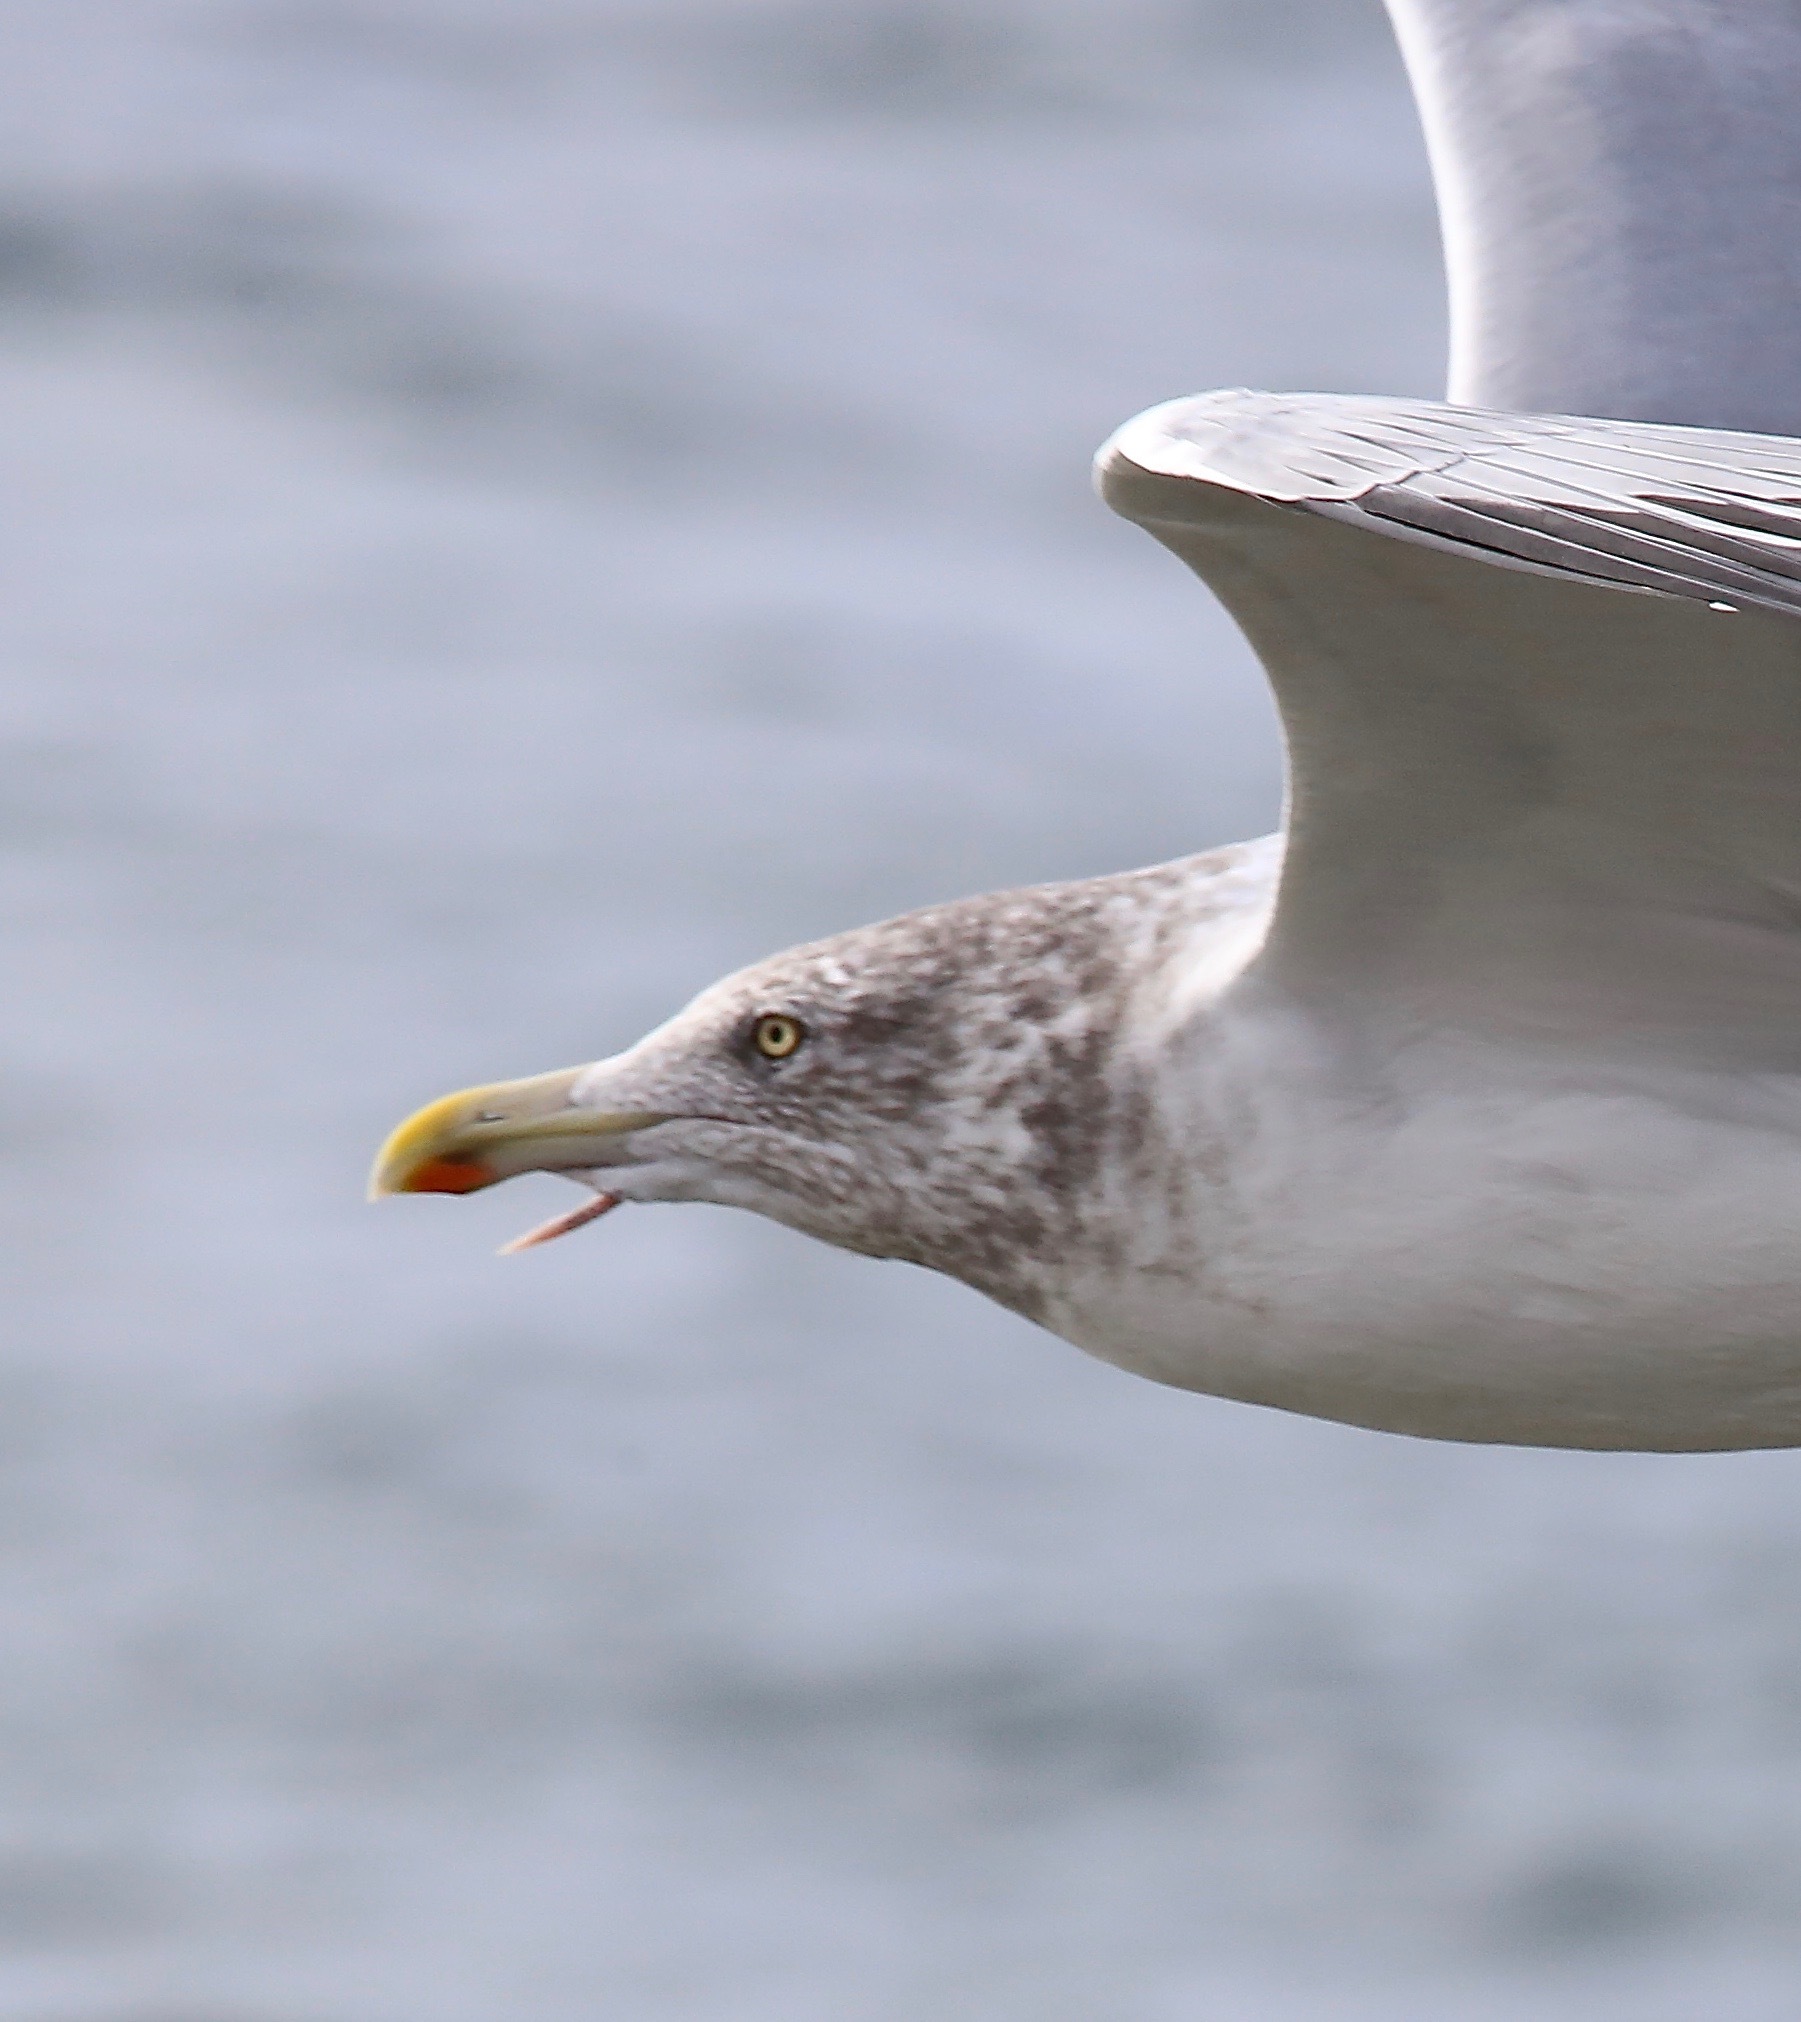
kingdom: Animalia
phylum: Chordata
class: Aves
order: Charadriiformes
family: Laridae
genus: Larus
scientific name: Larus argentatus
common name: Herring gull
